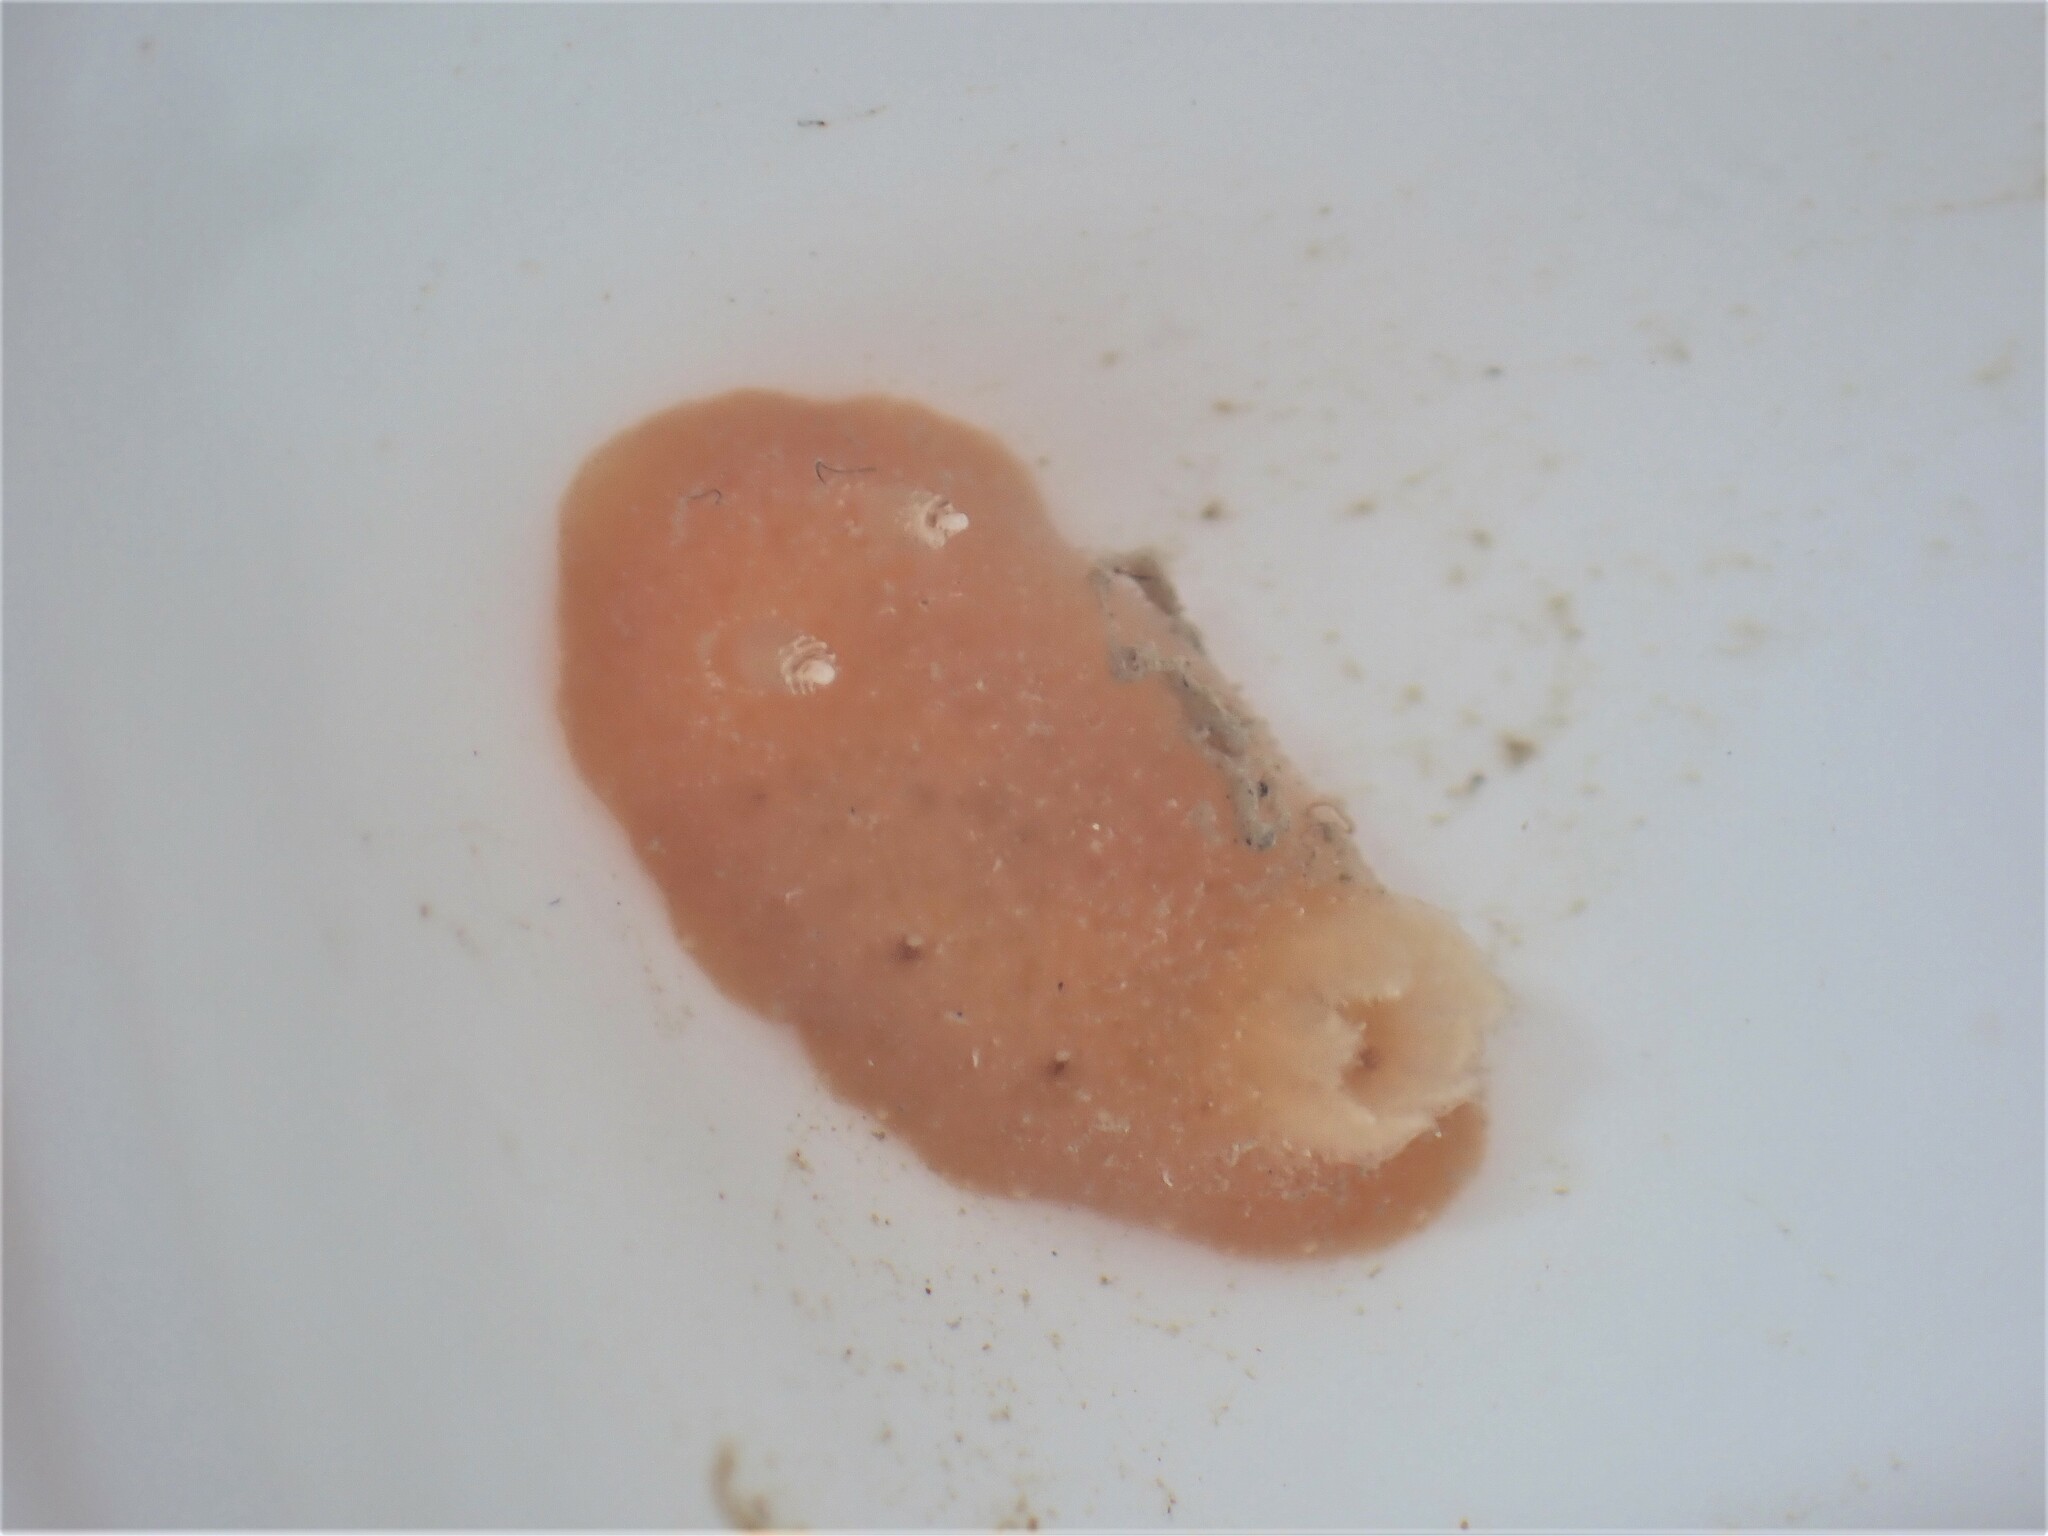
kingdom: Animalia
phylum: Mollusca
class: Gastropoda
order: Nudibranchia
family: Discodorididae
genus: Rostanga
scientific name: Rostanga calumus
